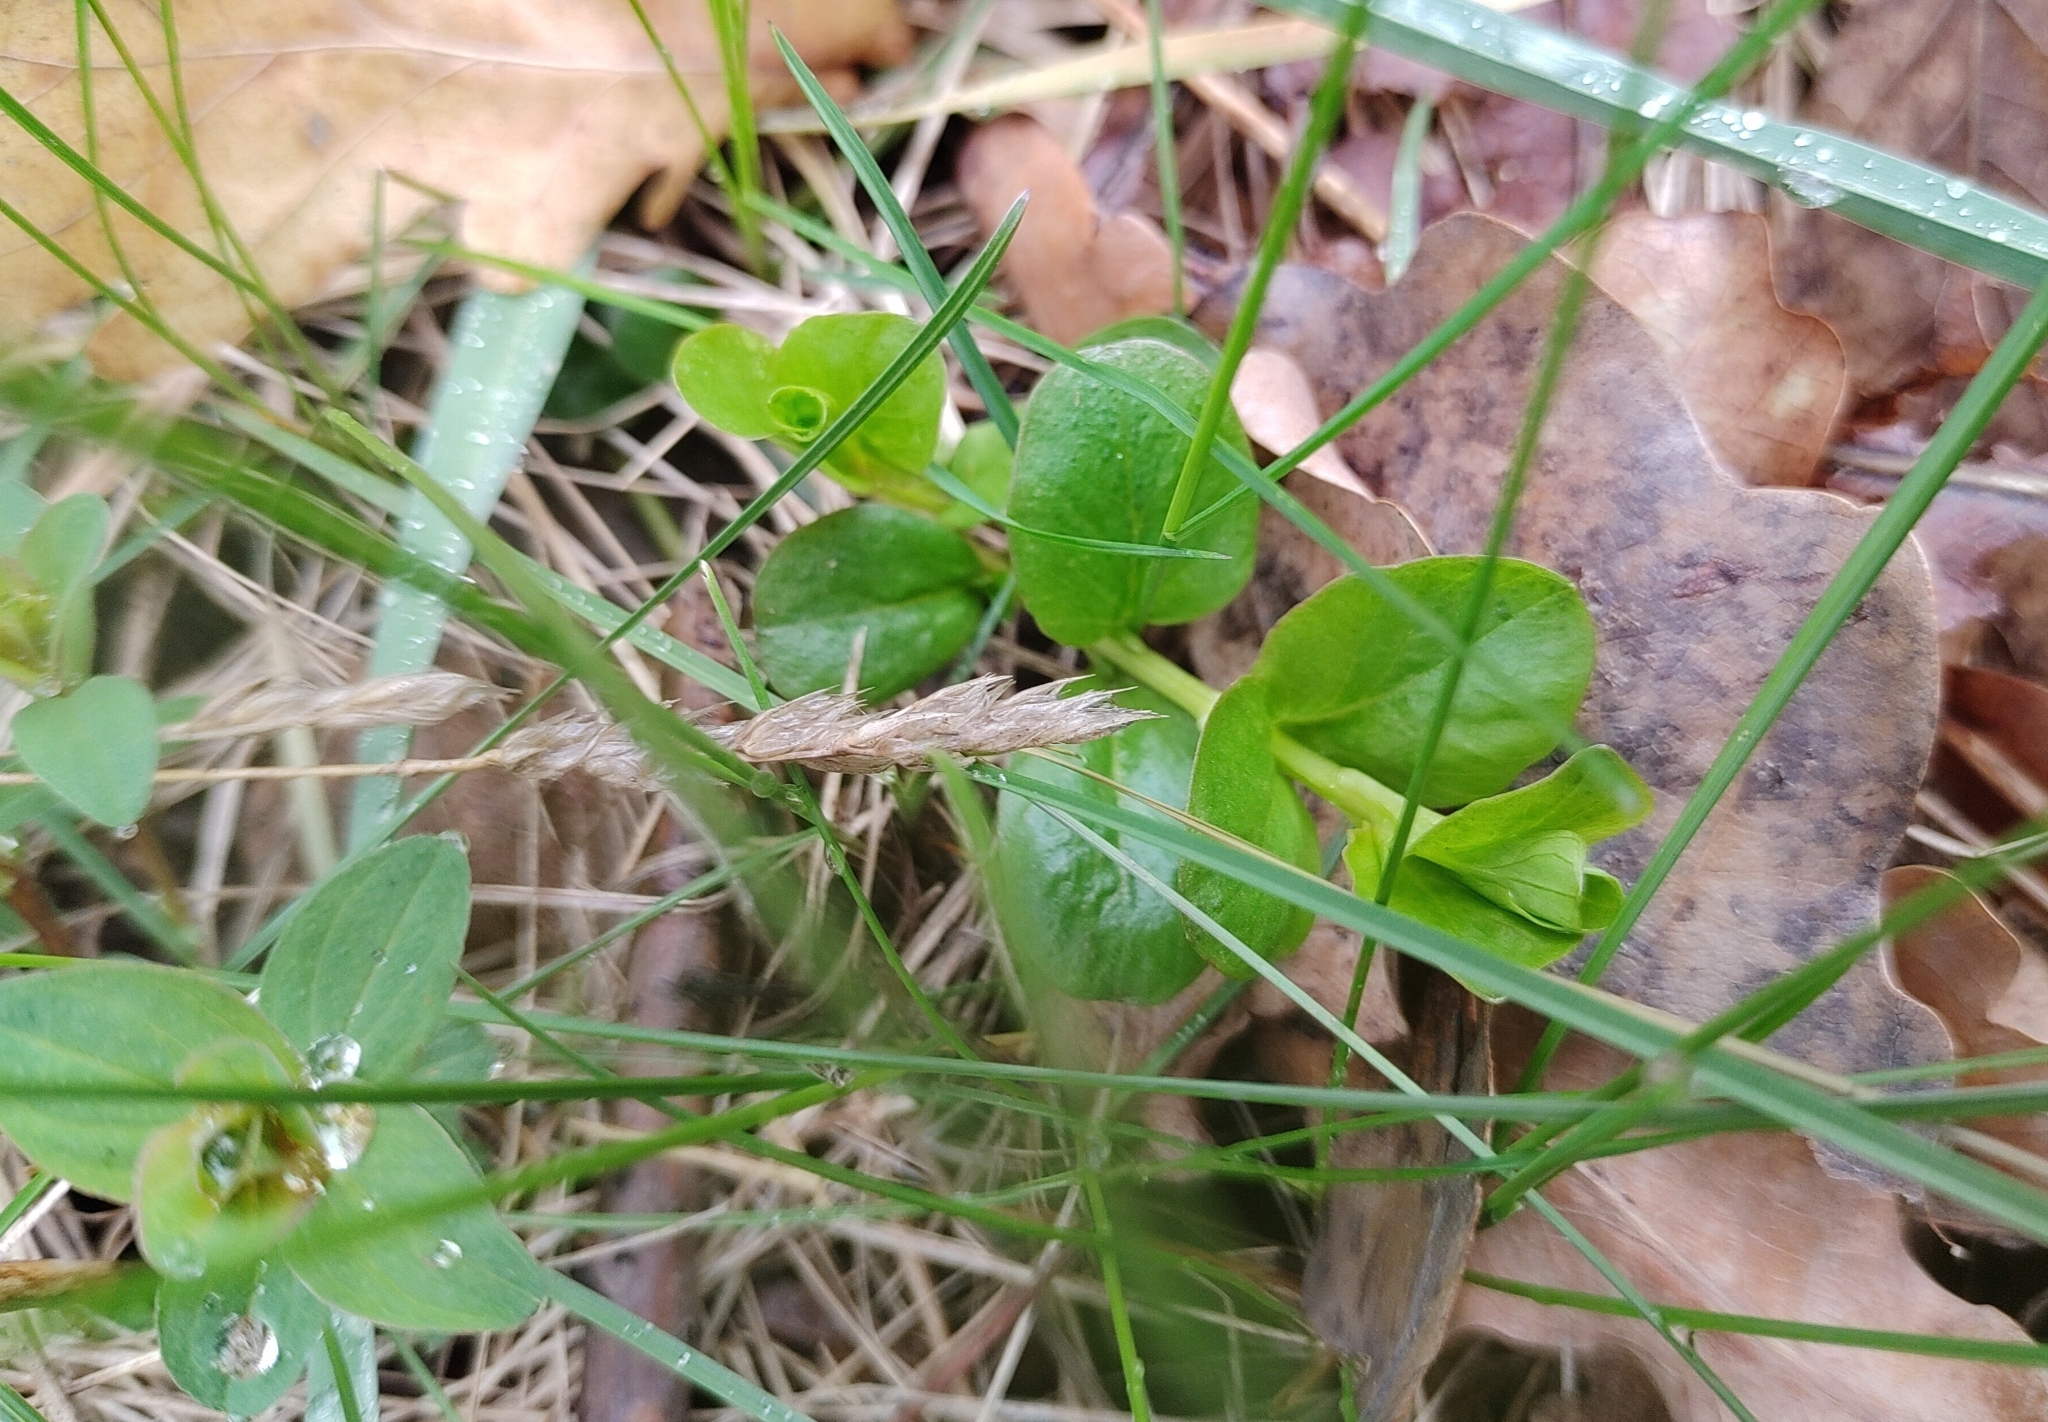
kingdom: Plantae
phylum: Tracheophyta
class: Magnoliopsida
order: Ericales
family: Primulaceae
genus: Lysimachia
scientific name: Lysimachia nummularia
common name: Moneywort
